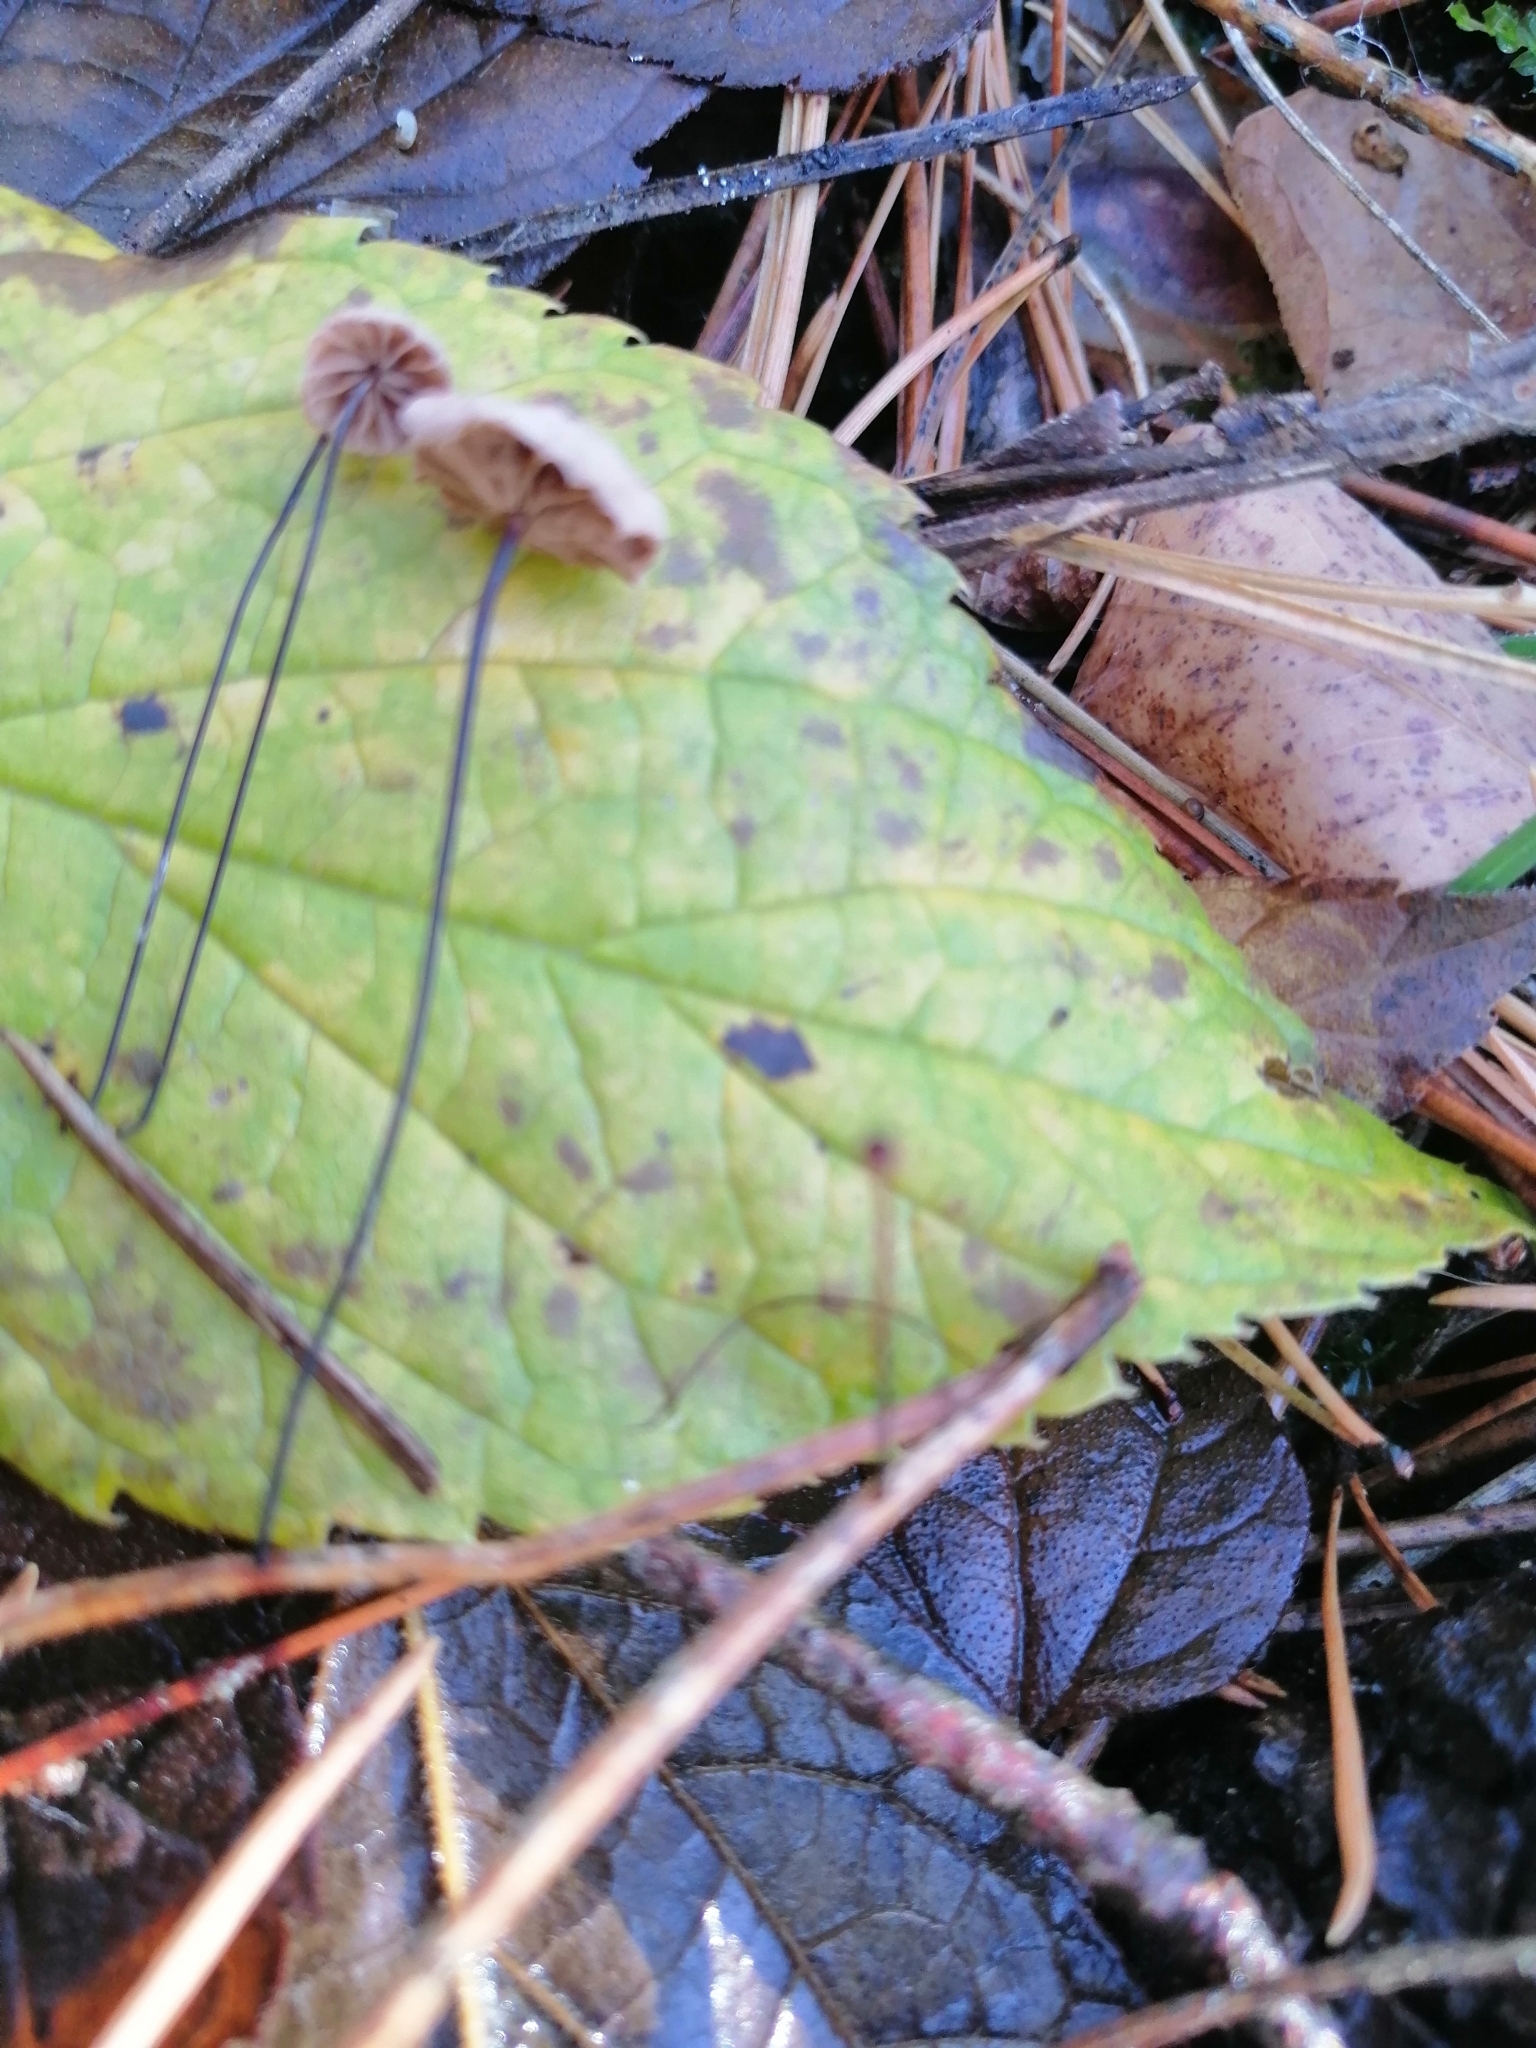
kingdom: Fungi
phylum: Basidiomycota
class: Agaricomycetes
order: Agaricales
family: Omphalotaceae
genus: Gymnopus
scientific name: Gymnopus androsaceus
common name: Horse-hair fungus
